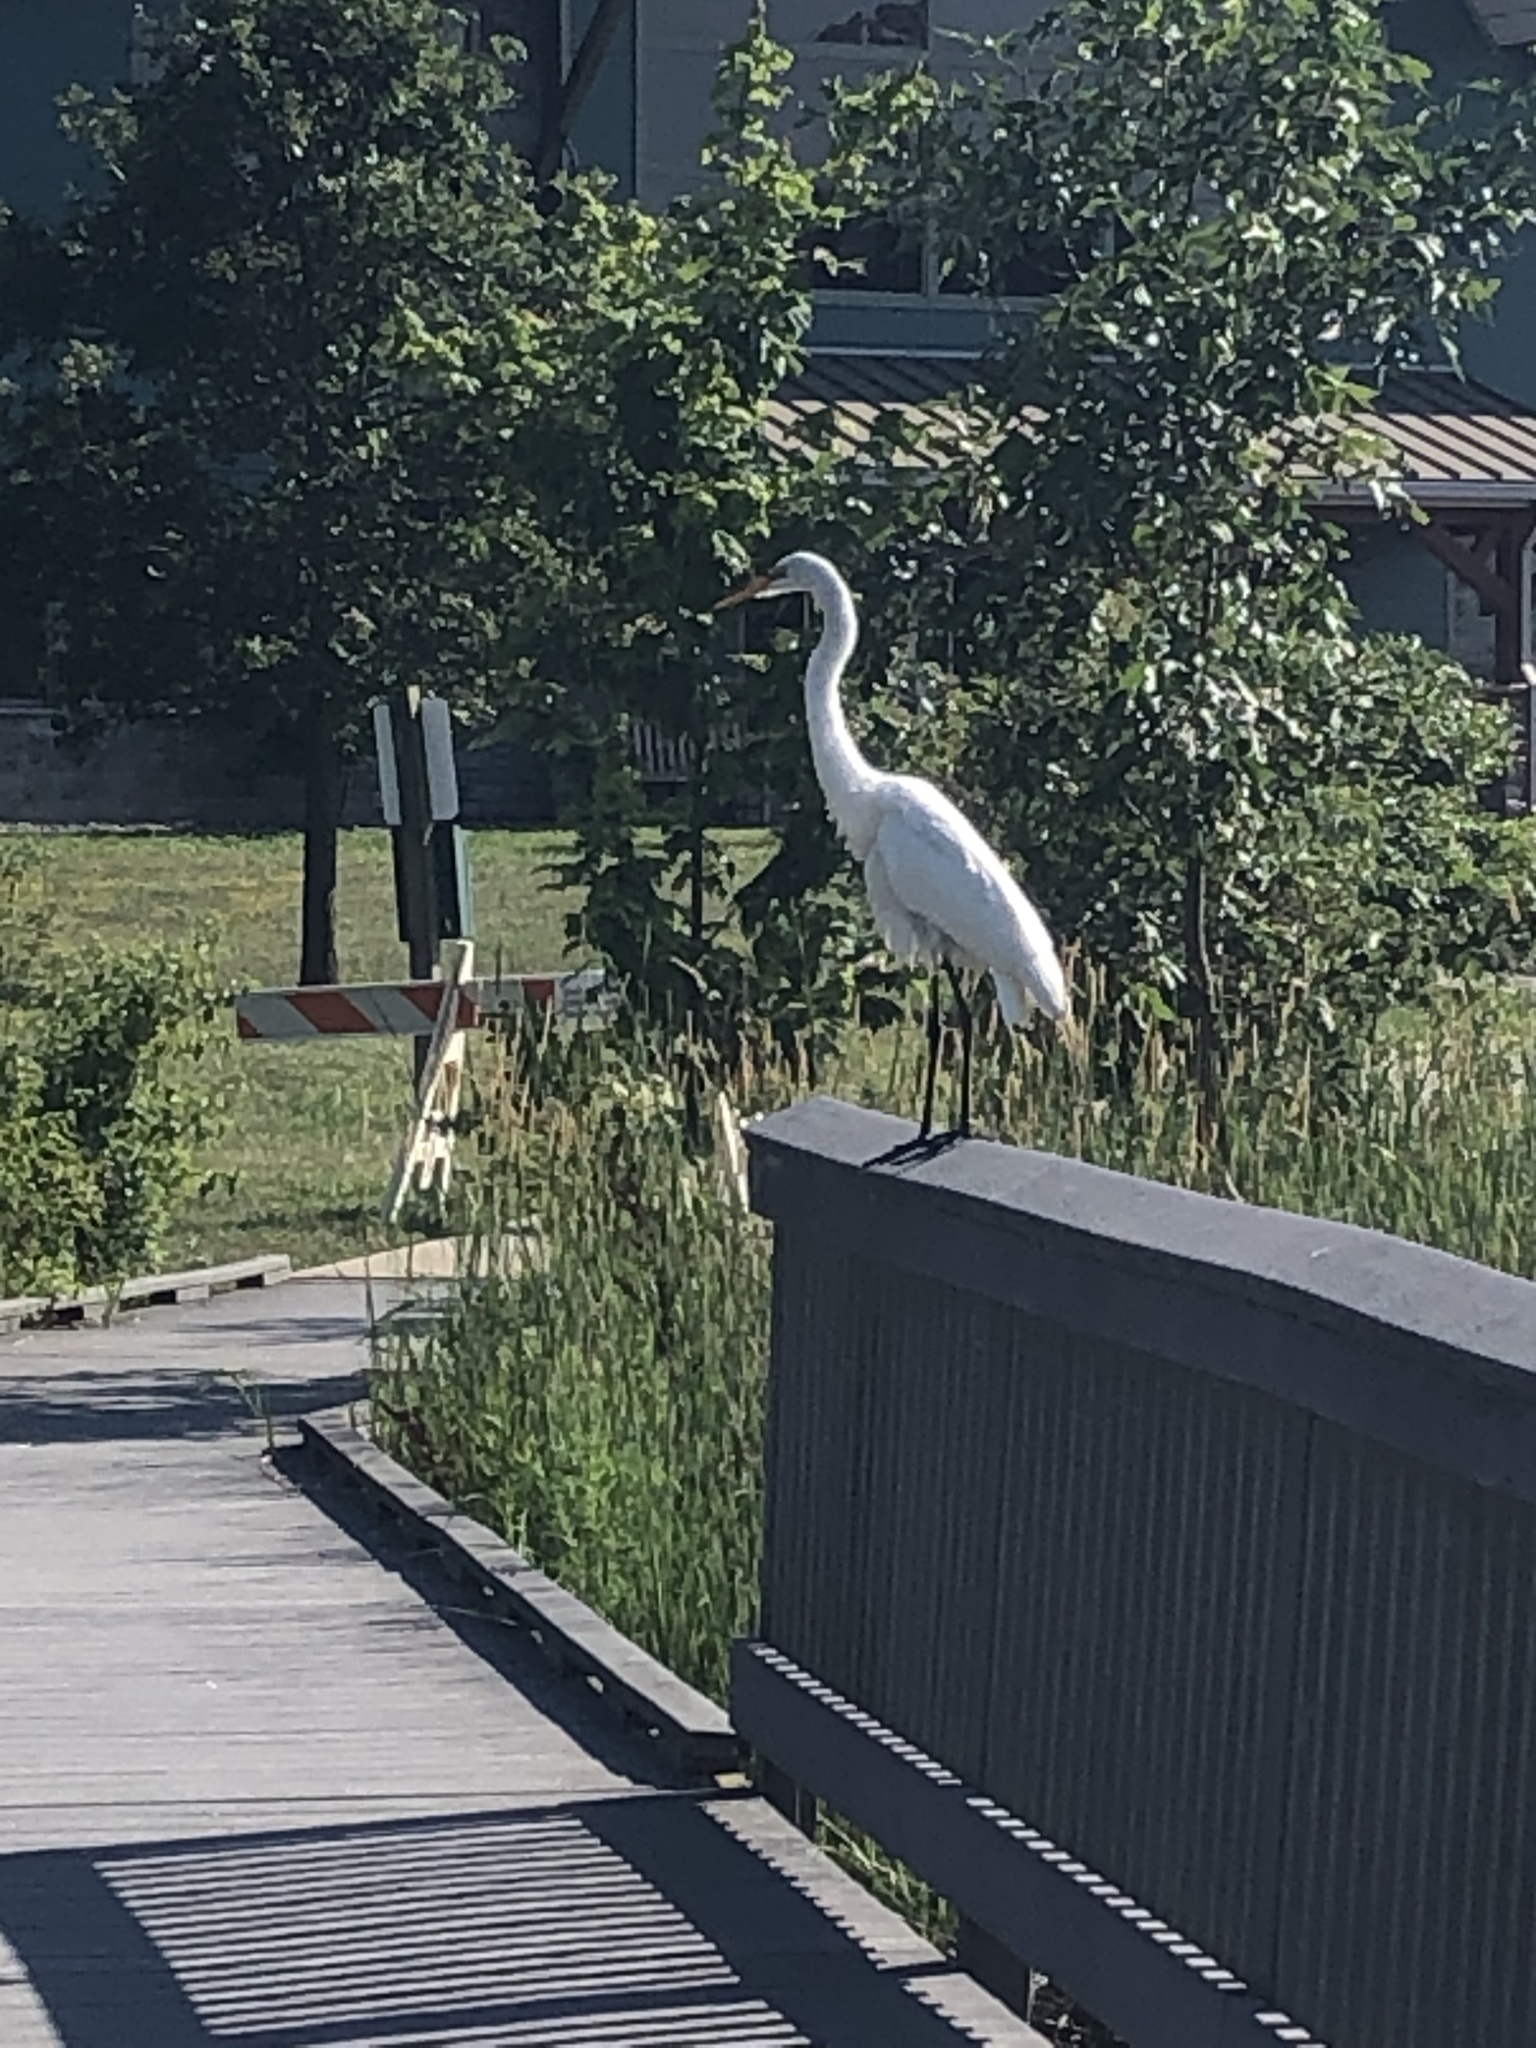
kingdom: Animalia
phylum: Chordata
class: Aves
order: Pelecaniformes
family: Ardeidae
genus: Ardea
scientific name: Ardea alba
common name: Great egret
